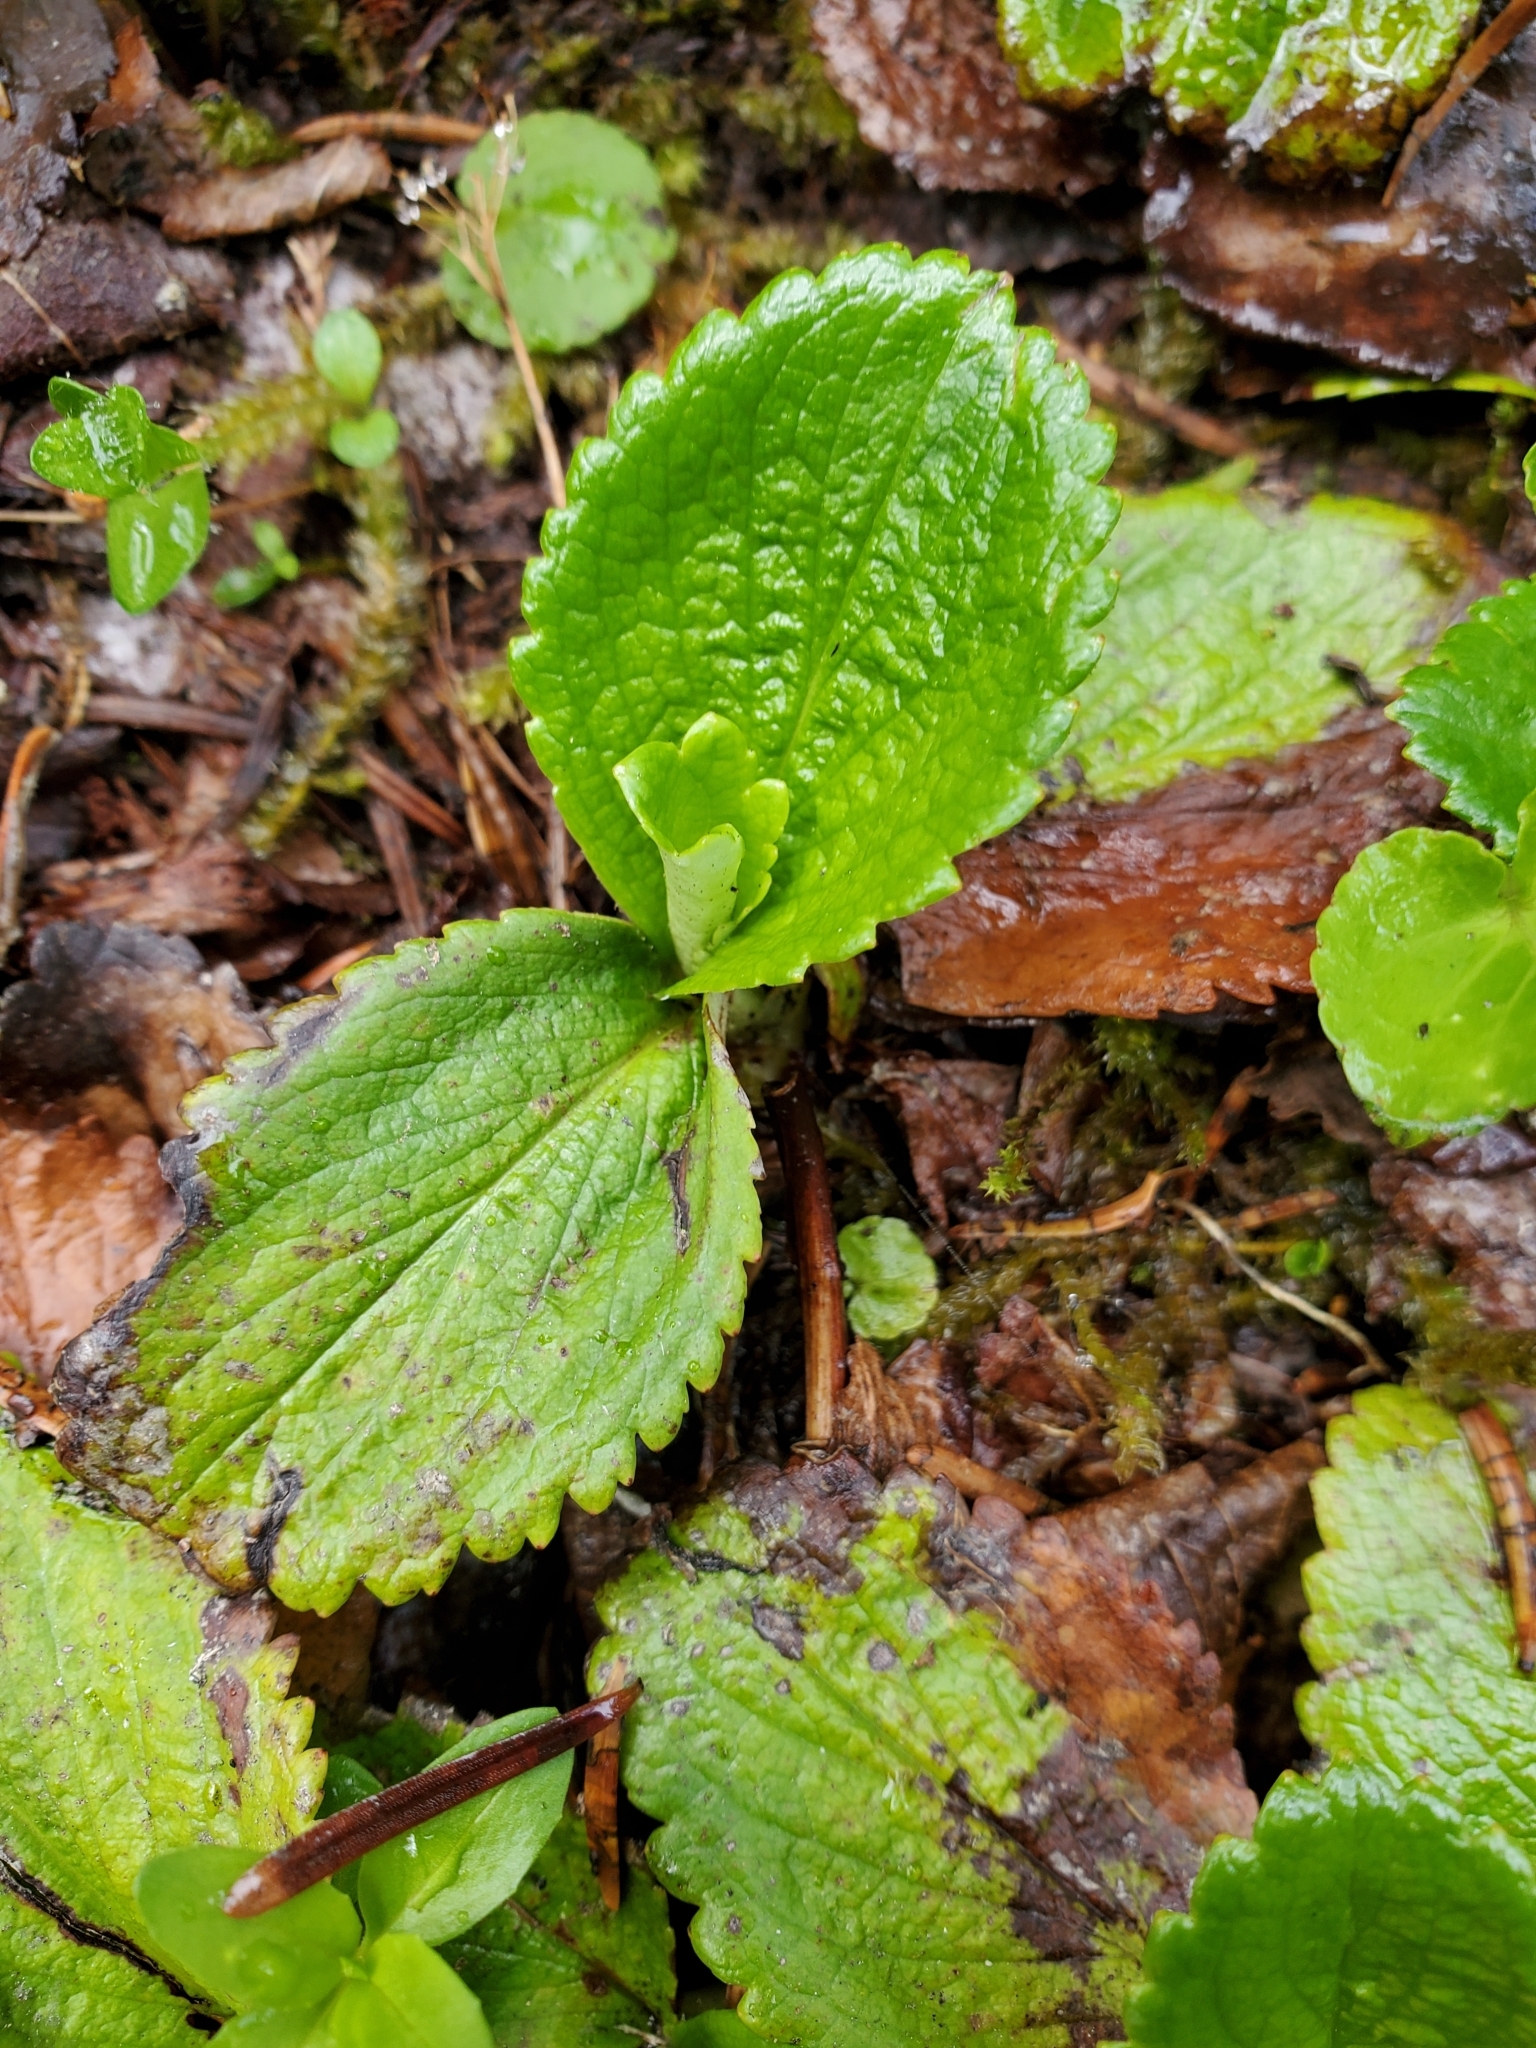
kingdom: Plantae
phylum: Tracheophyta
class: Magnoliopsida
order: Saxifragales
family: Saxifragaceae
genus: Leptarrhena
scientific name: Leptarrhena pyrolifolia
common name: Leatherleaf-saxifrage
